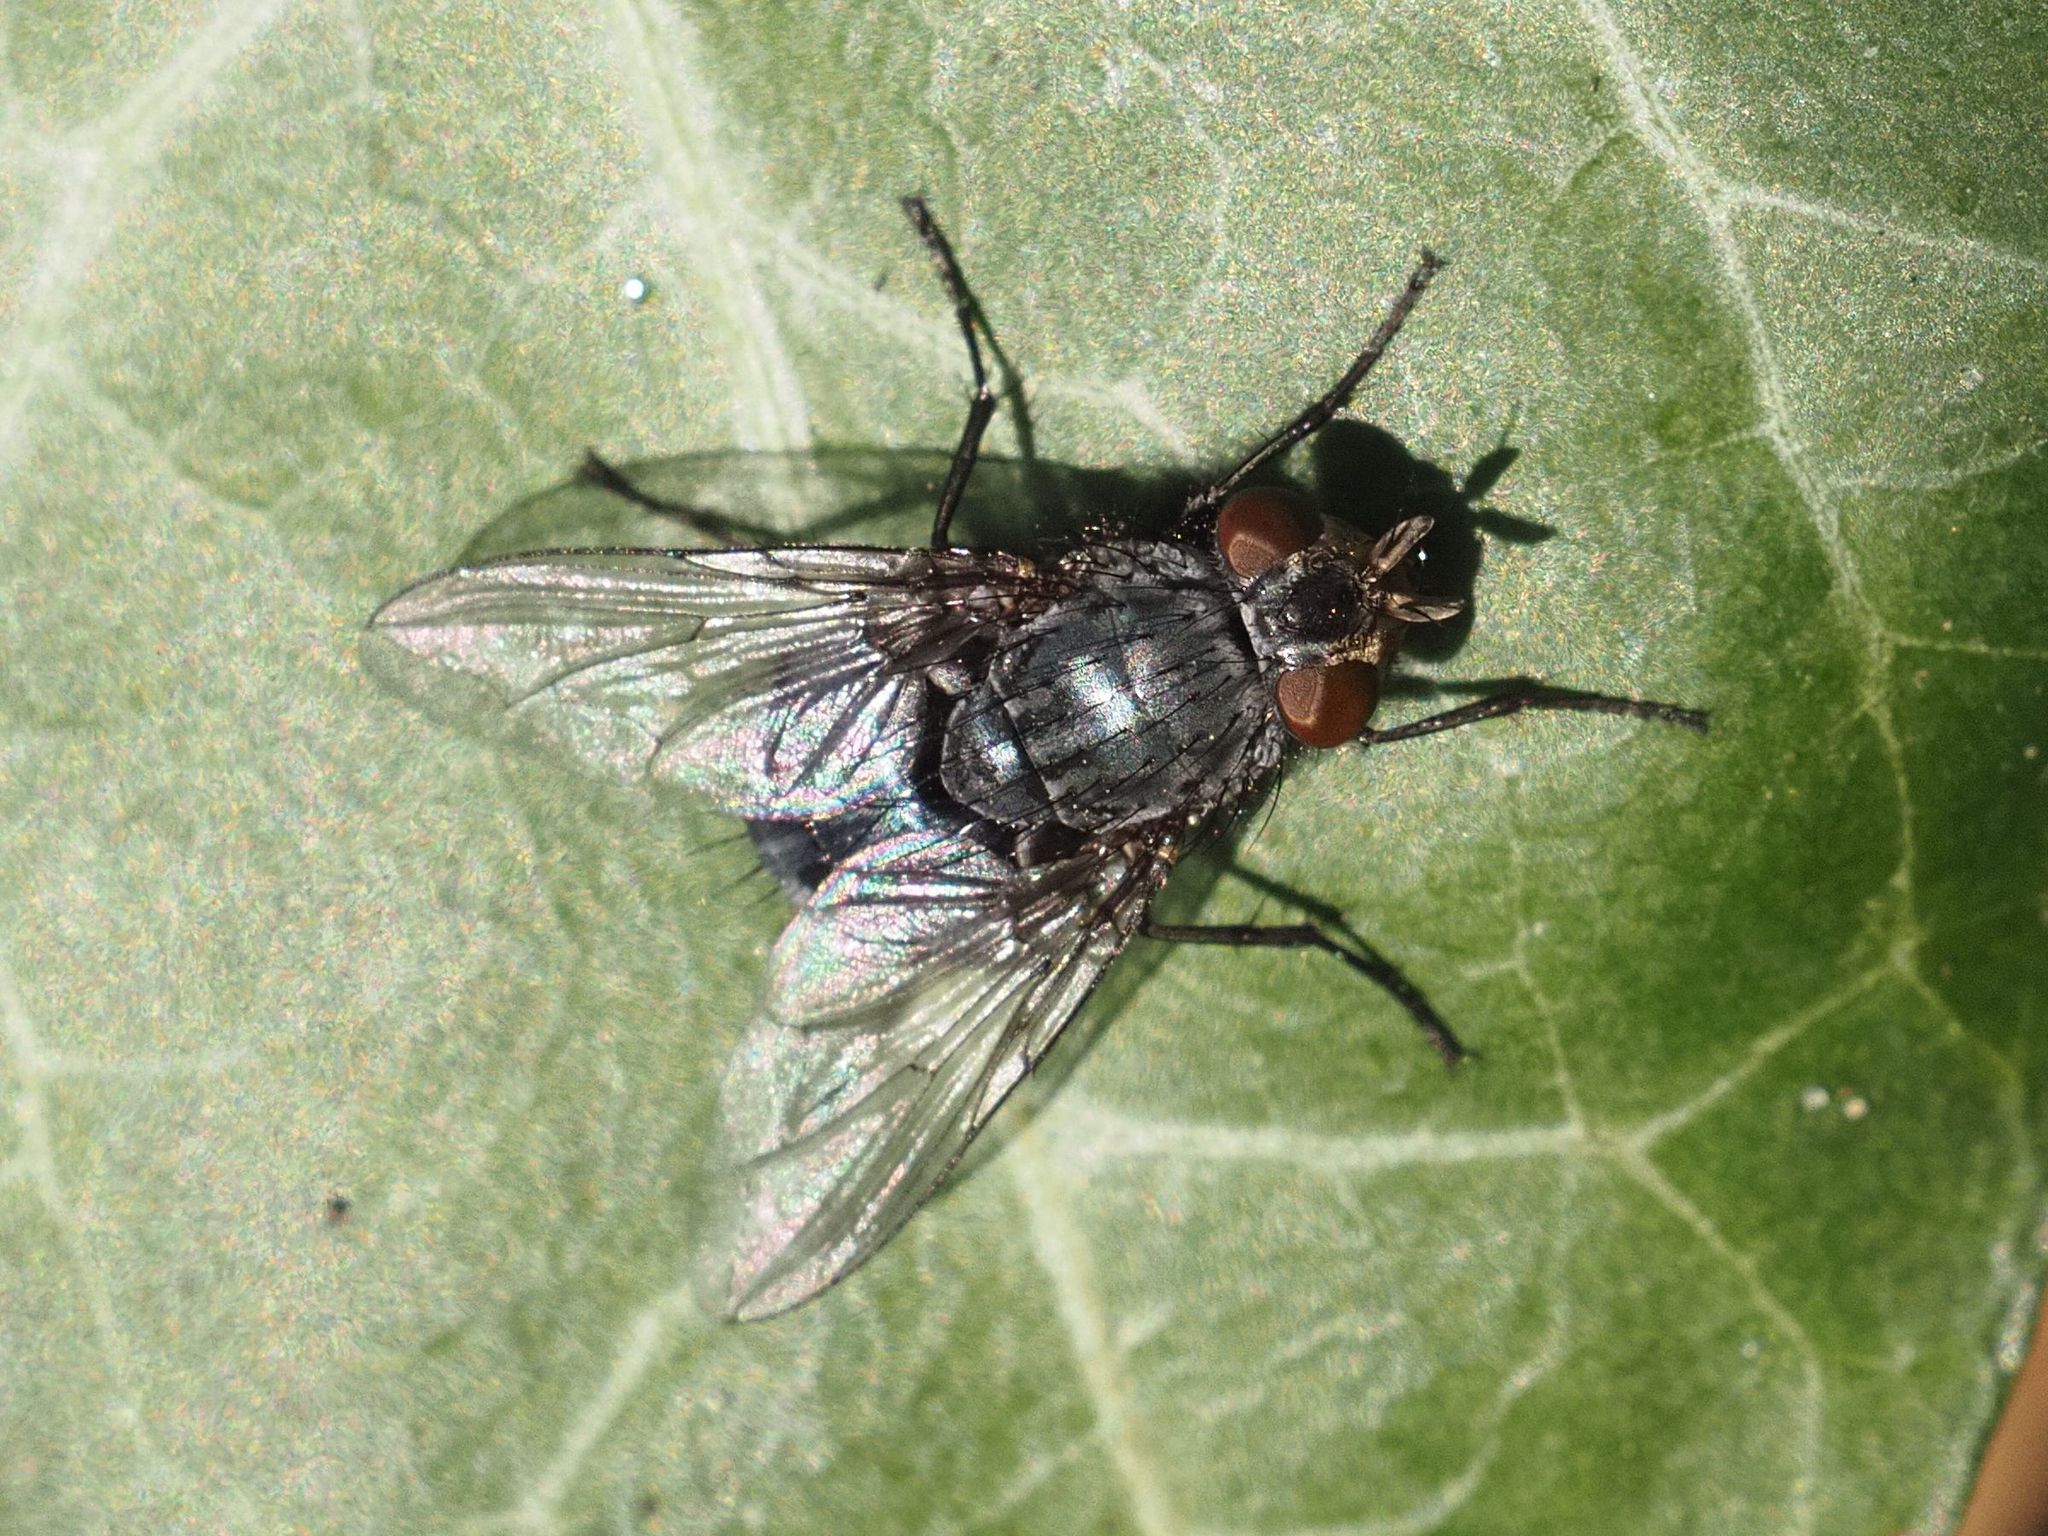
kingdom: Animalia
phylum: Arthropoda
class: Insecta
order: Diptera
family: Calliphoridae
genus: Calliphora
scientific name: Calliphora vicina
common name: Common blow flie
